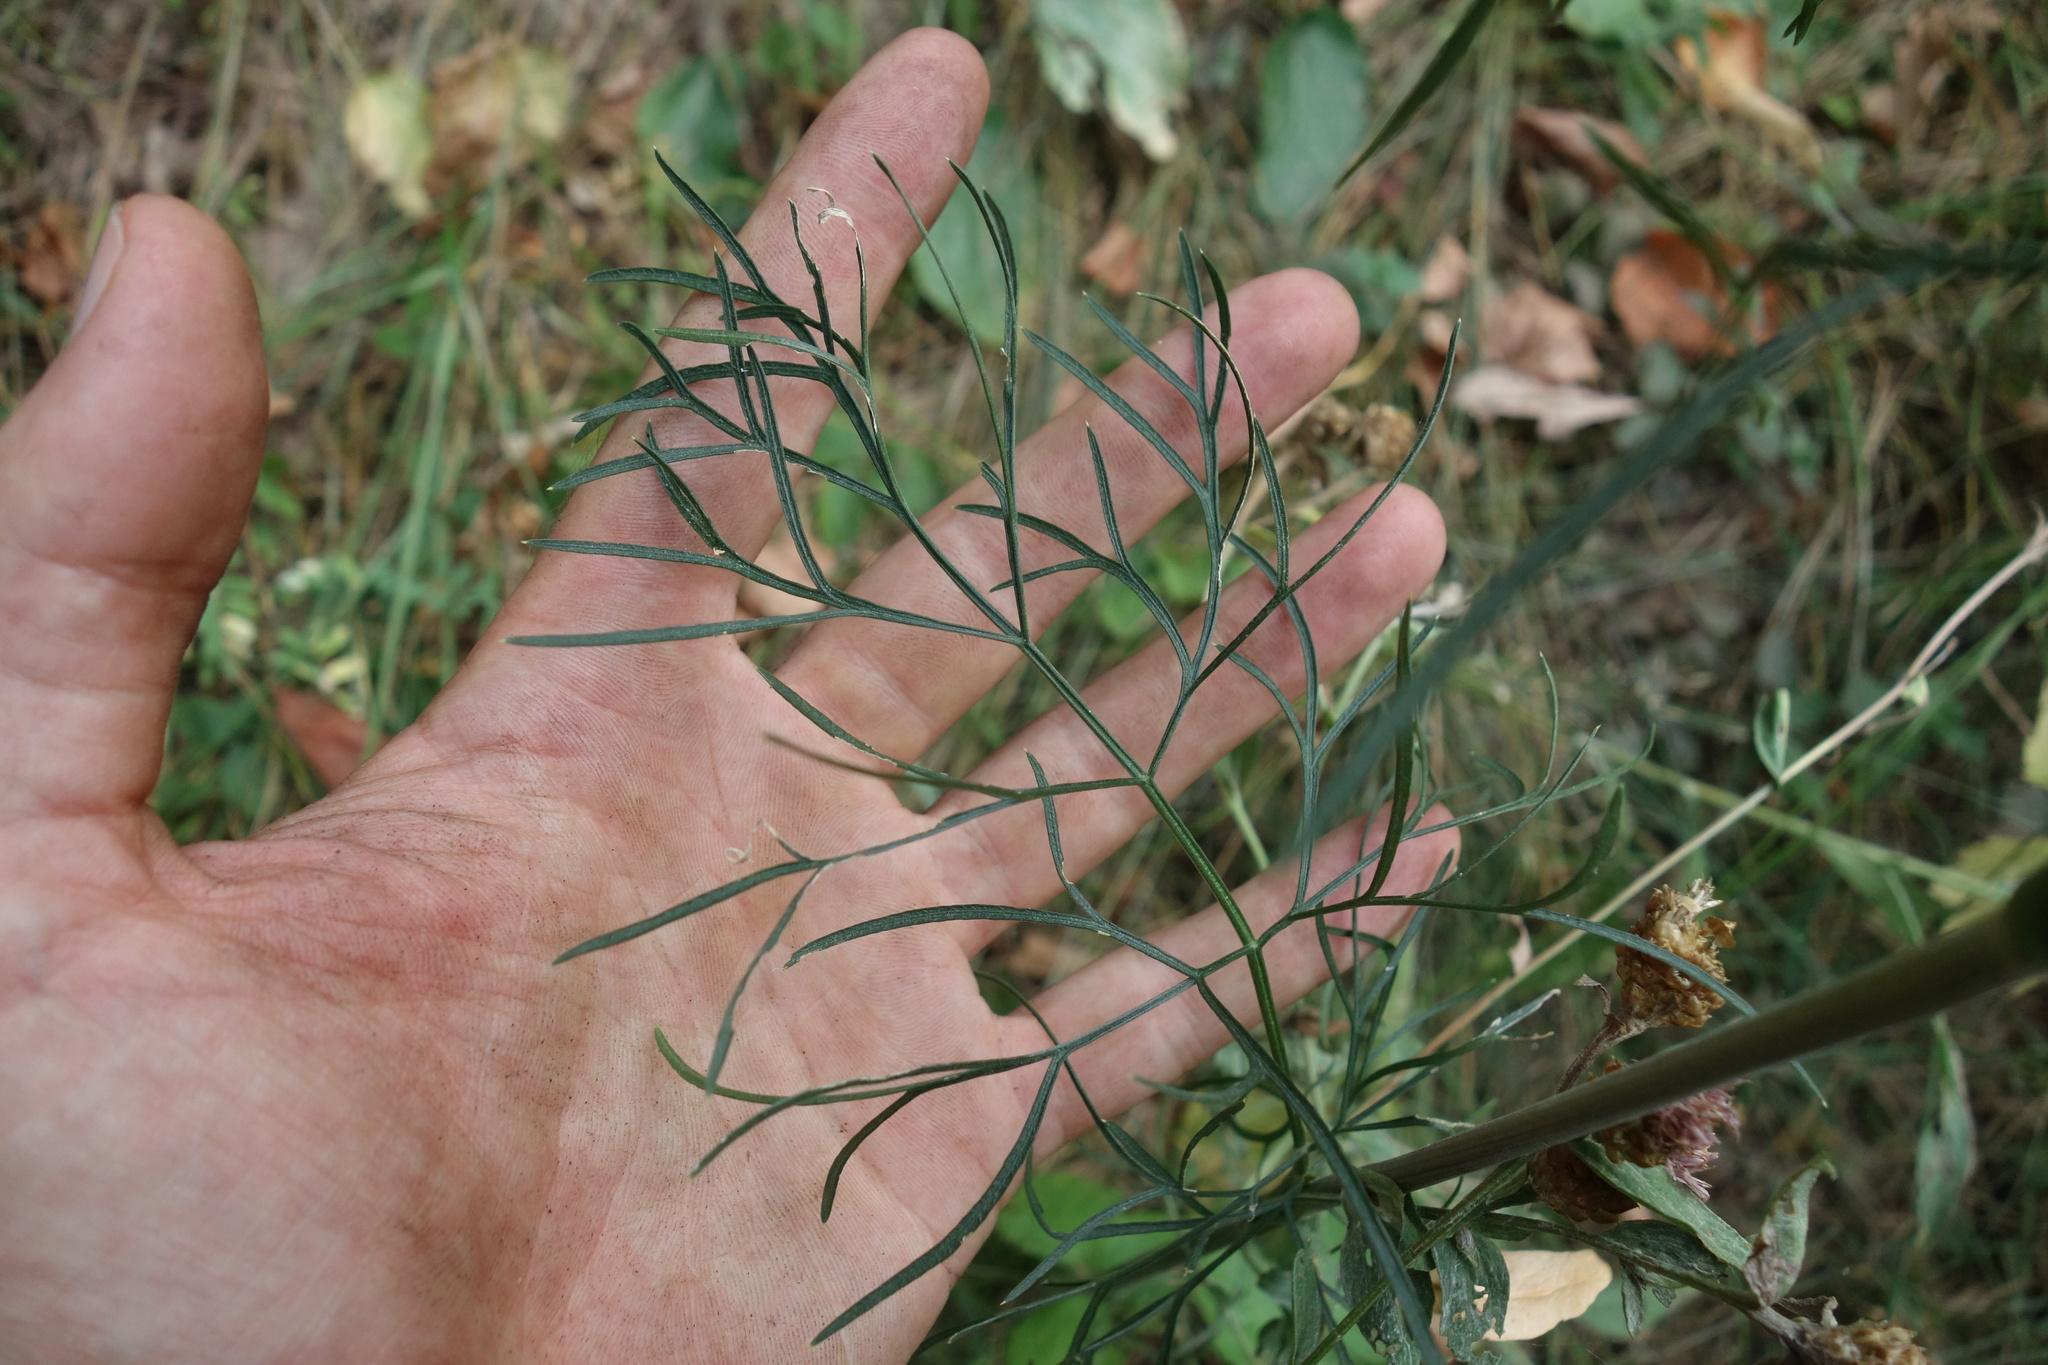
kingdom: Plantae
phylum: Tracheophyta
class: Magnoliopsida
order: Apiales
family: Apiaceae
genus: Seseli
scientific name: Seseli annuum
